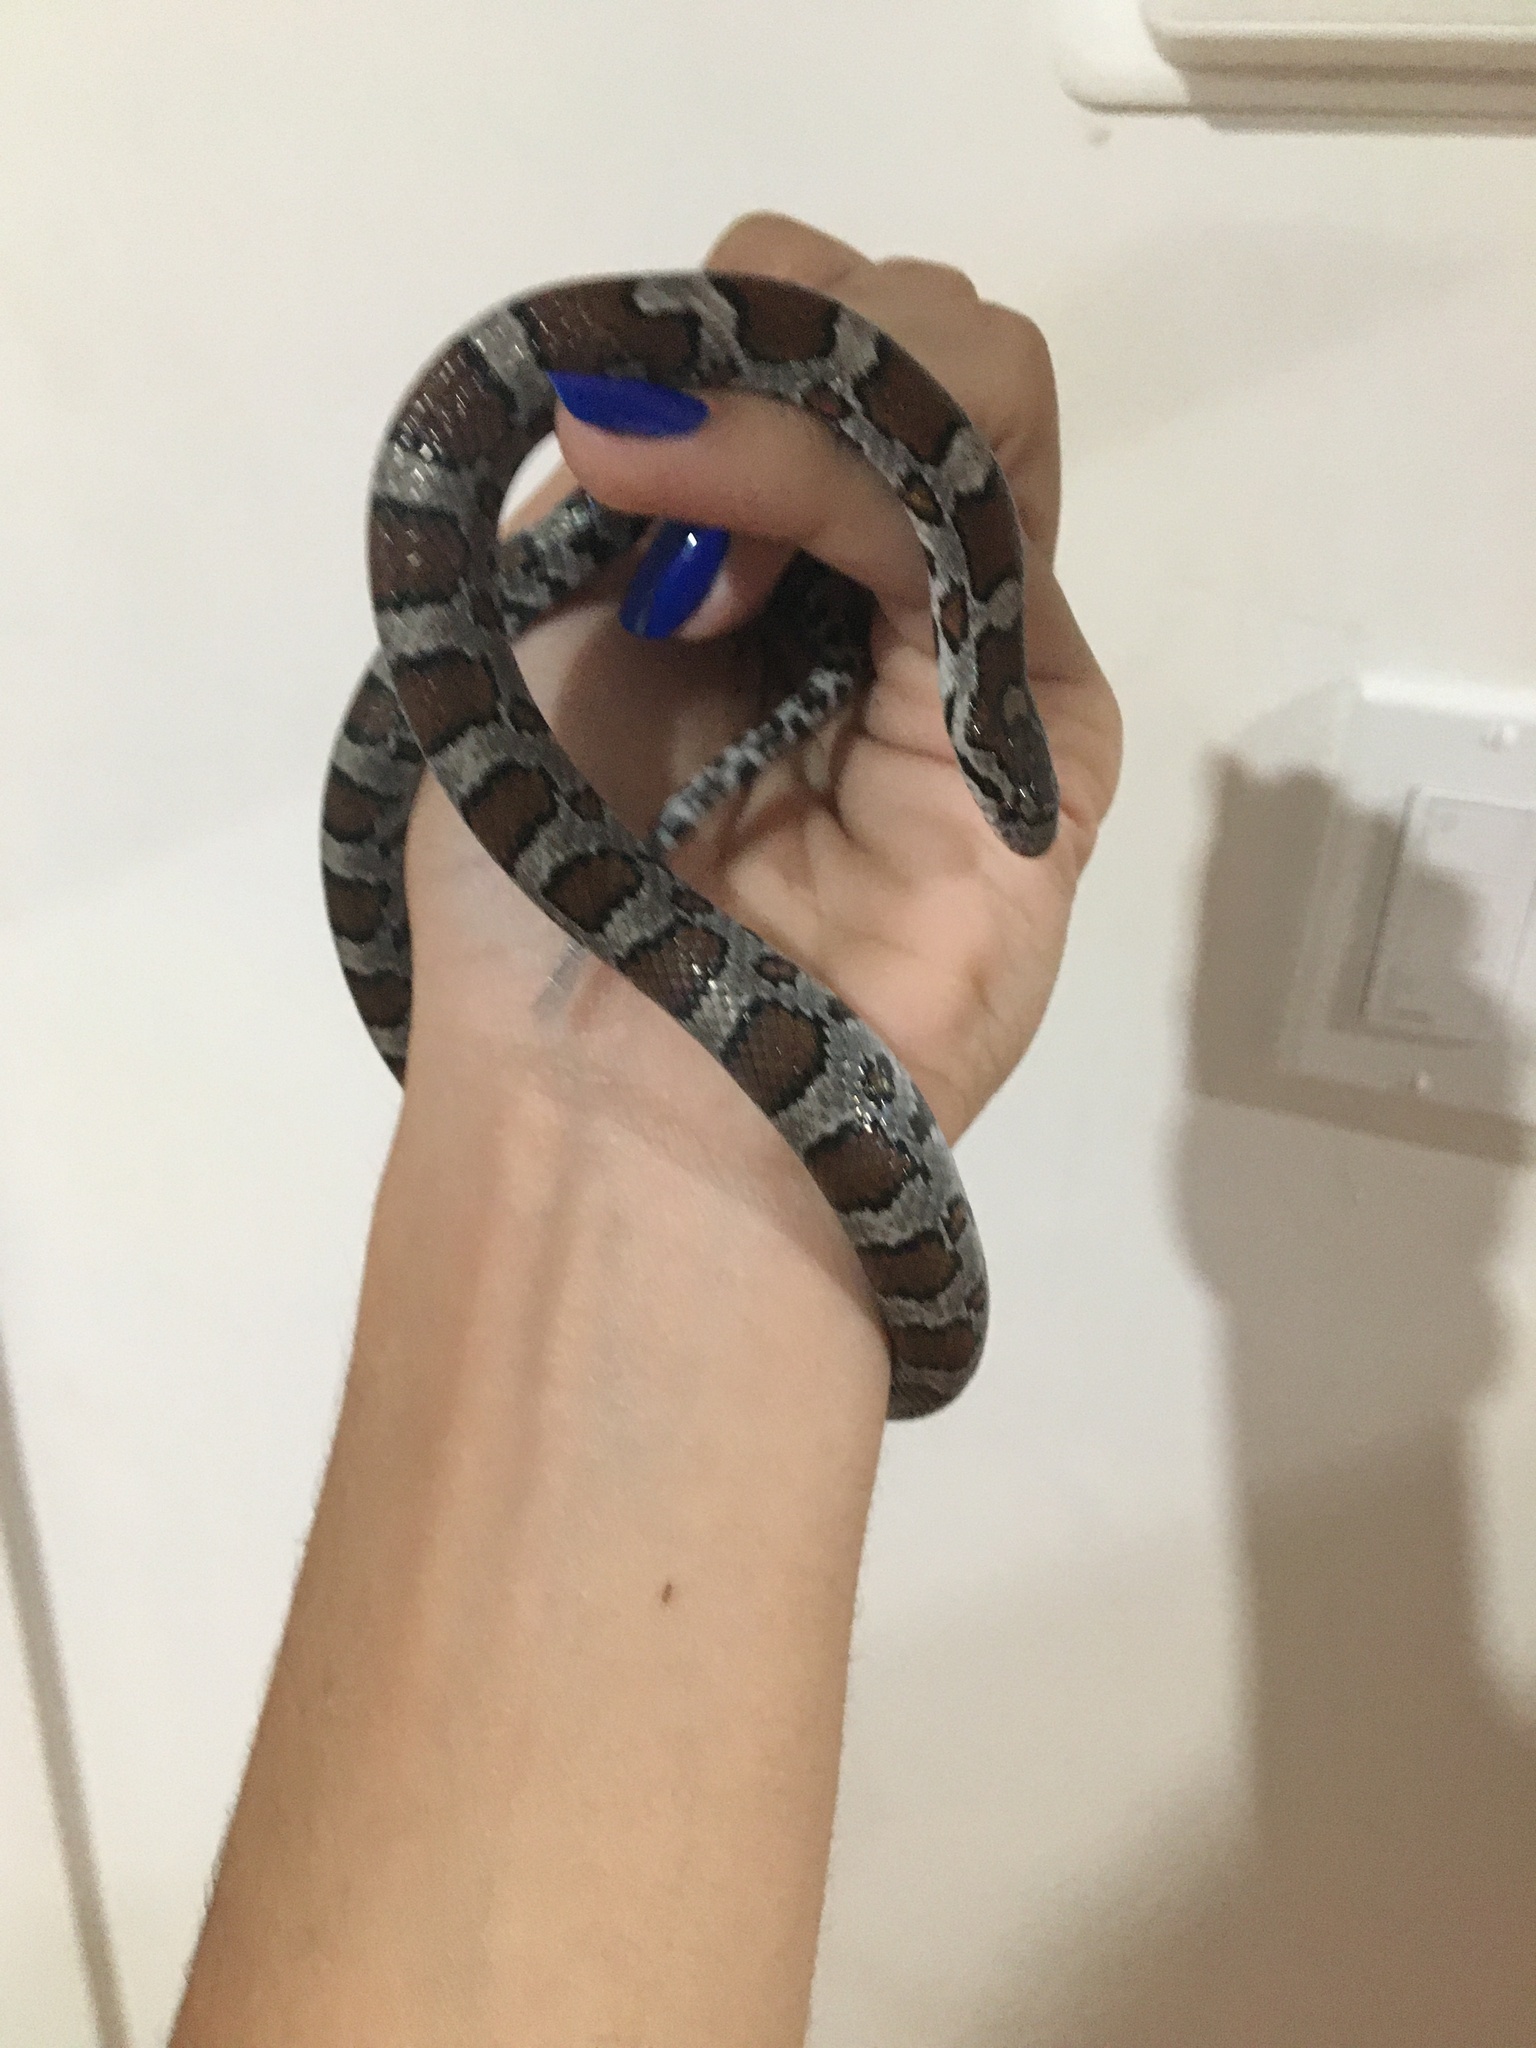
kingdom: Animalia
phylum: Chordata
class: Squamata
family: Colubridae
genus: Lampropeltis
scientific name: Lampropeltis triangulum
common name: Eastern milksnake
